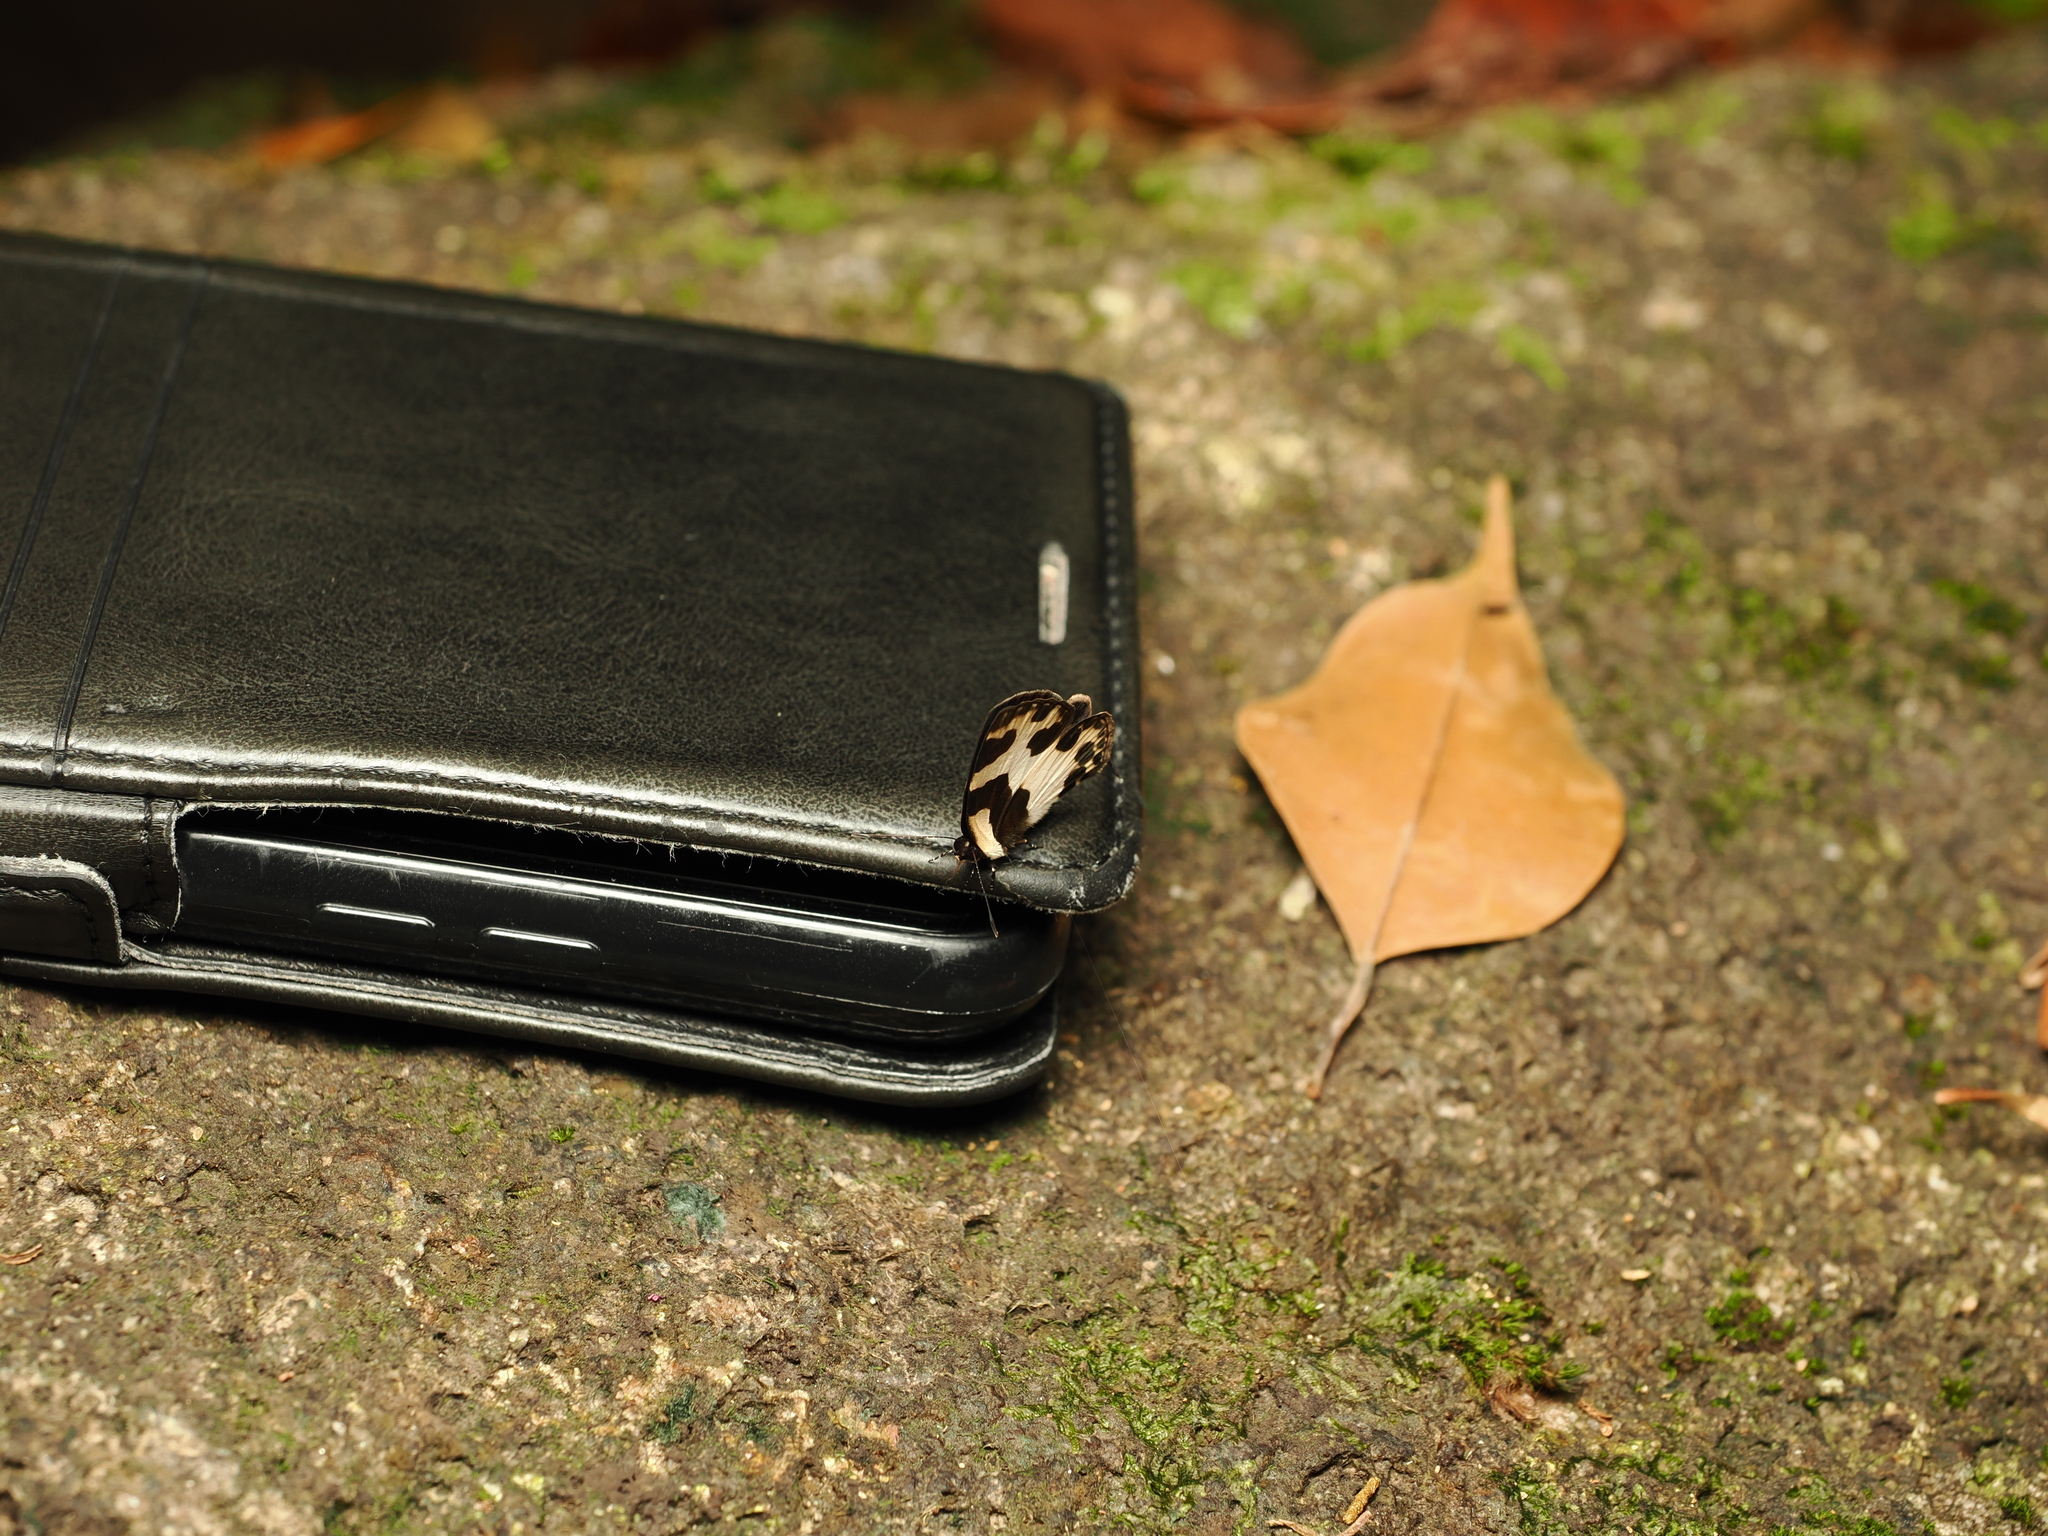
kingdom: Animalia
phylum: Arthropoda
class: Insecta
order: Lepidoptera
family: Lycaenidae
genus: Caleta
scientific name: Caleta elna
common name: Elbowed pierrot
